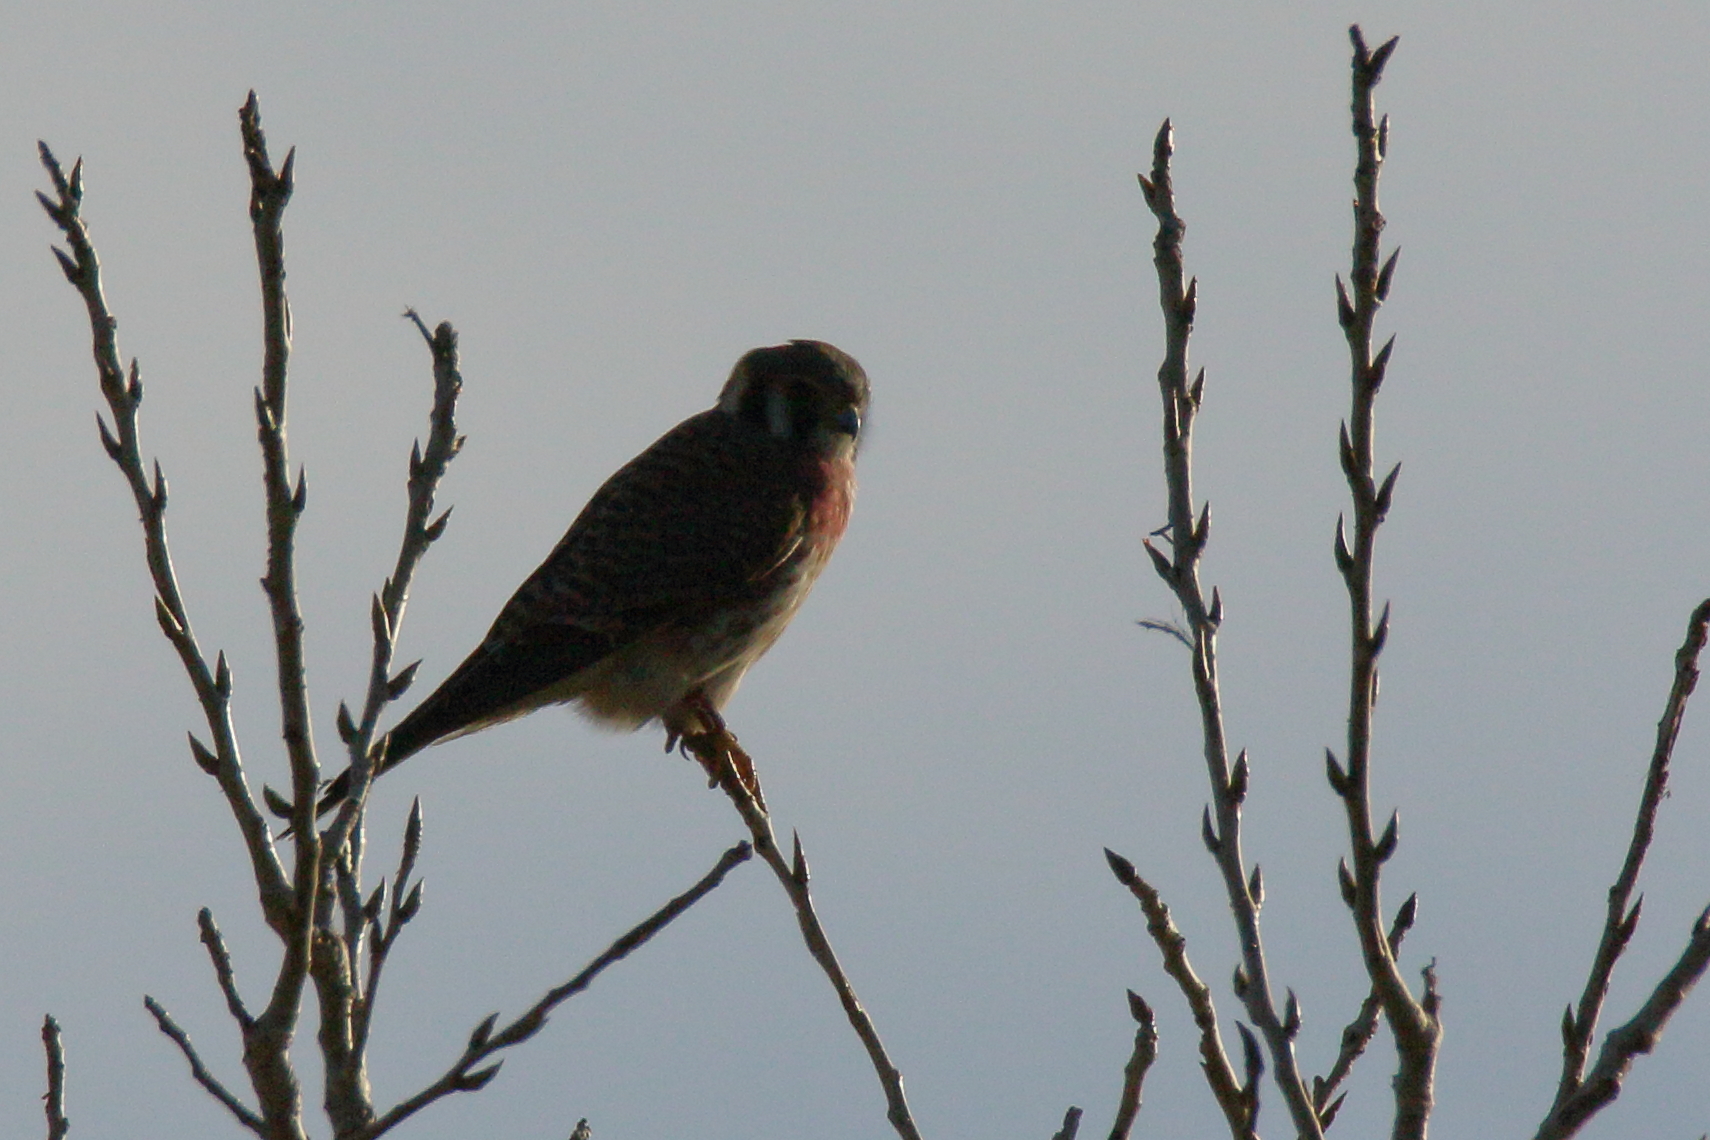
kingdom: Animalia
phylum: Chordata
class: Aves
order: Falconiformes
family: Falconidae
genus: Falco
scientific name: Falco sparverius
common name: American kestrel
